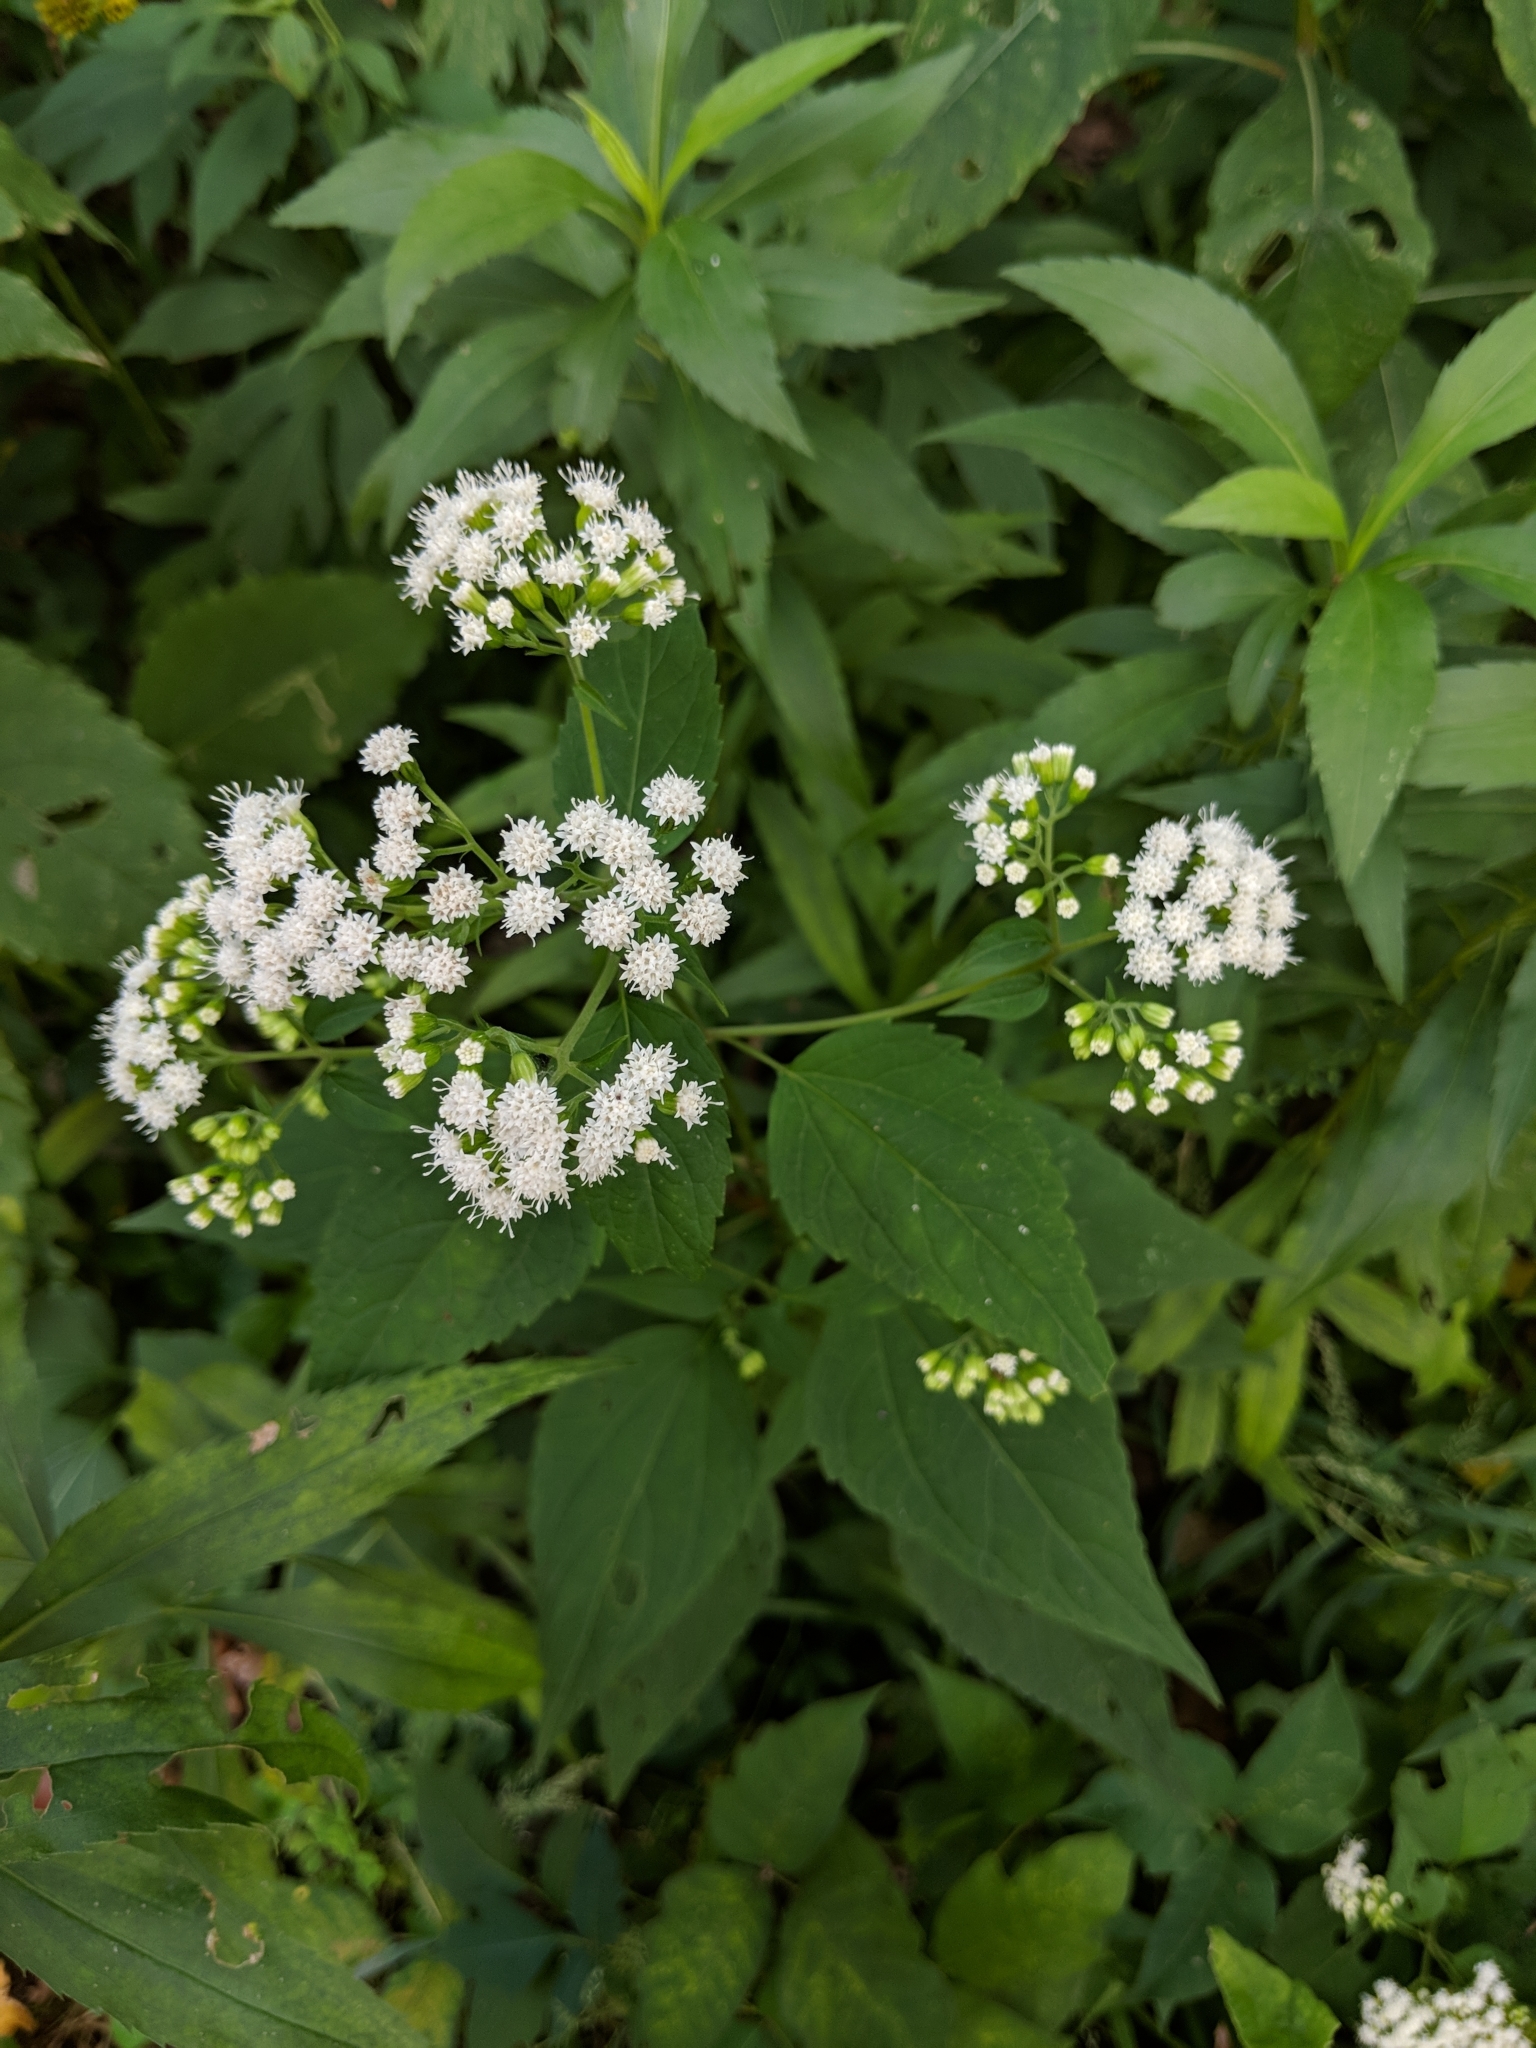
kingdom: Plantae
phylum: Tracheophyta
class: Magnoliopsida
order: Asterales
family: Asteraceae
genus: Ageratina
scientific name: Ageratina altissima
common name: White snakeroot
